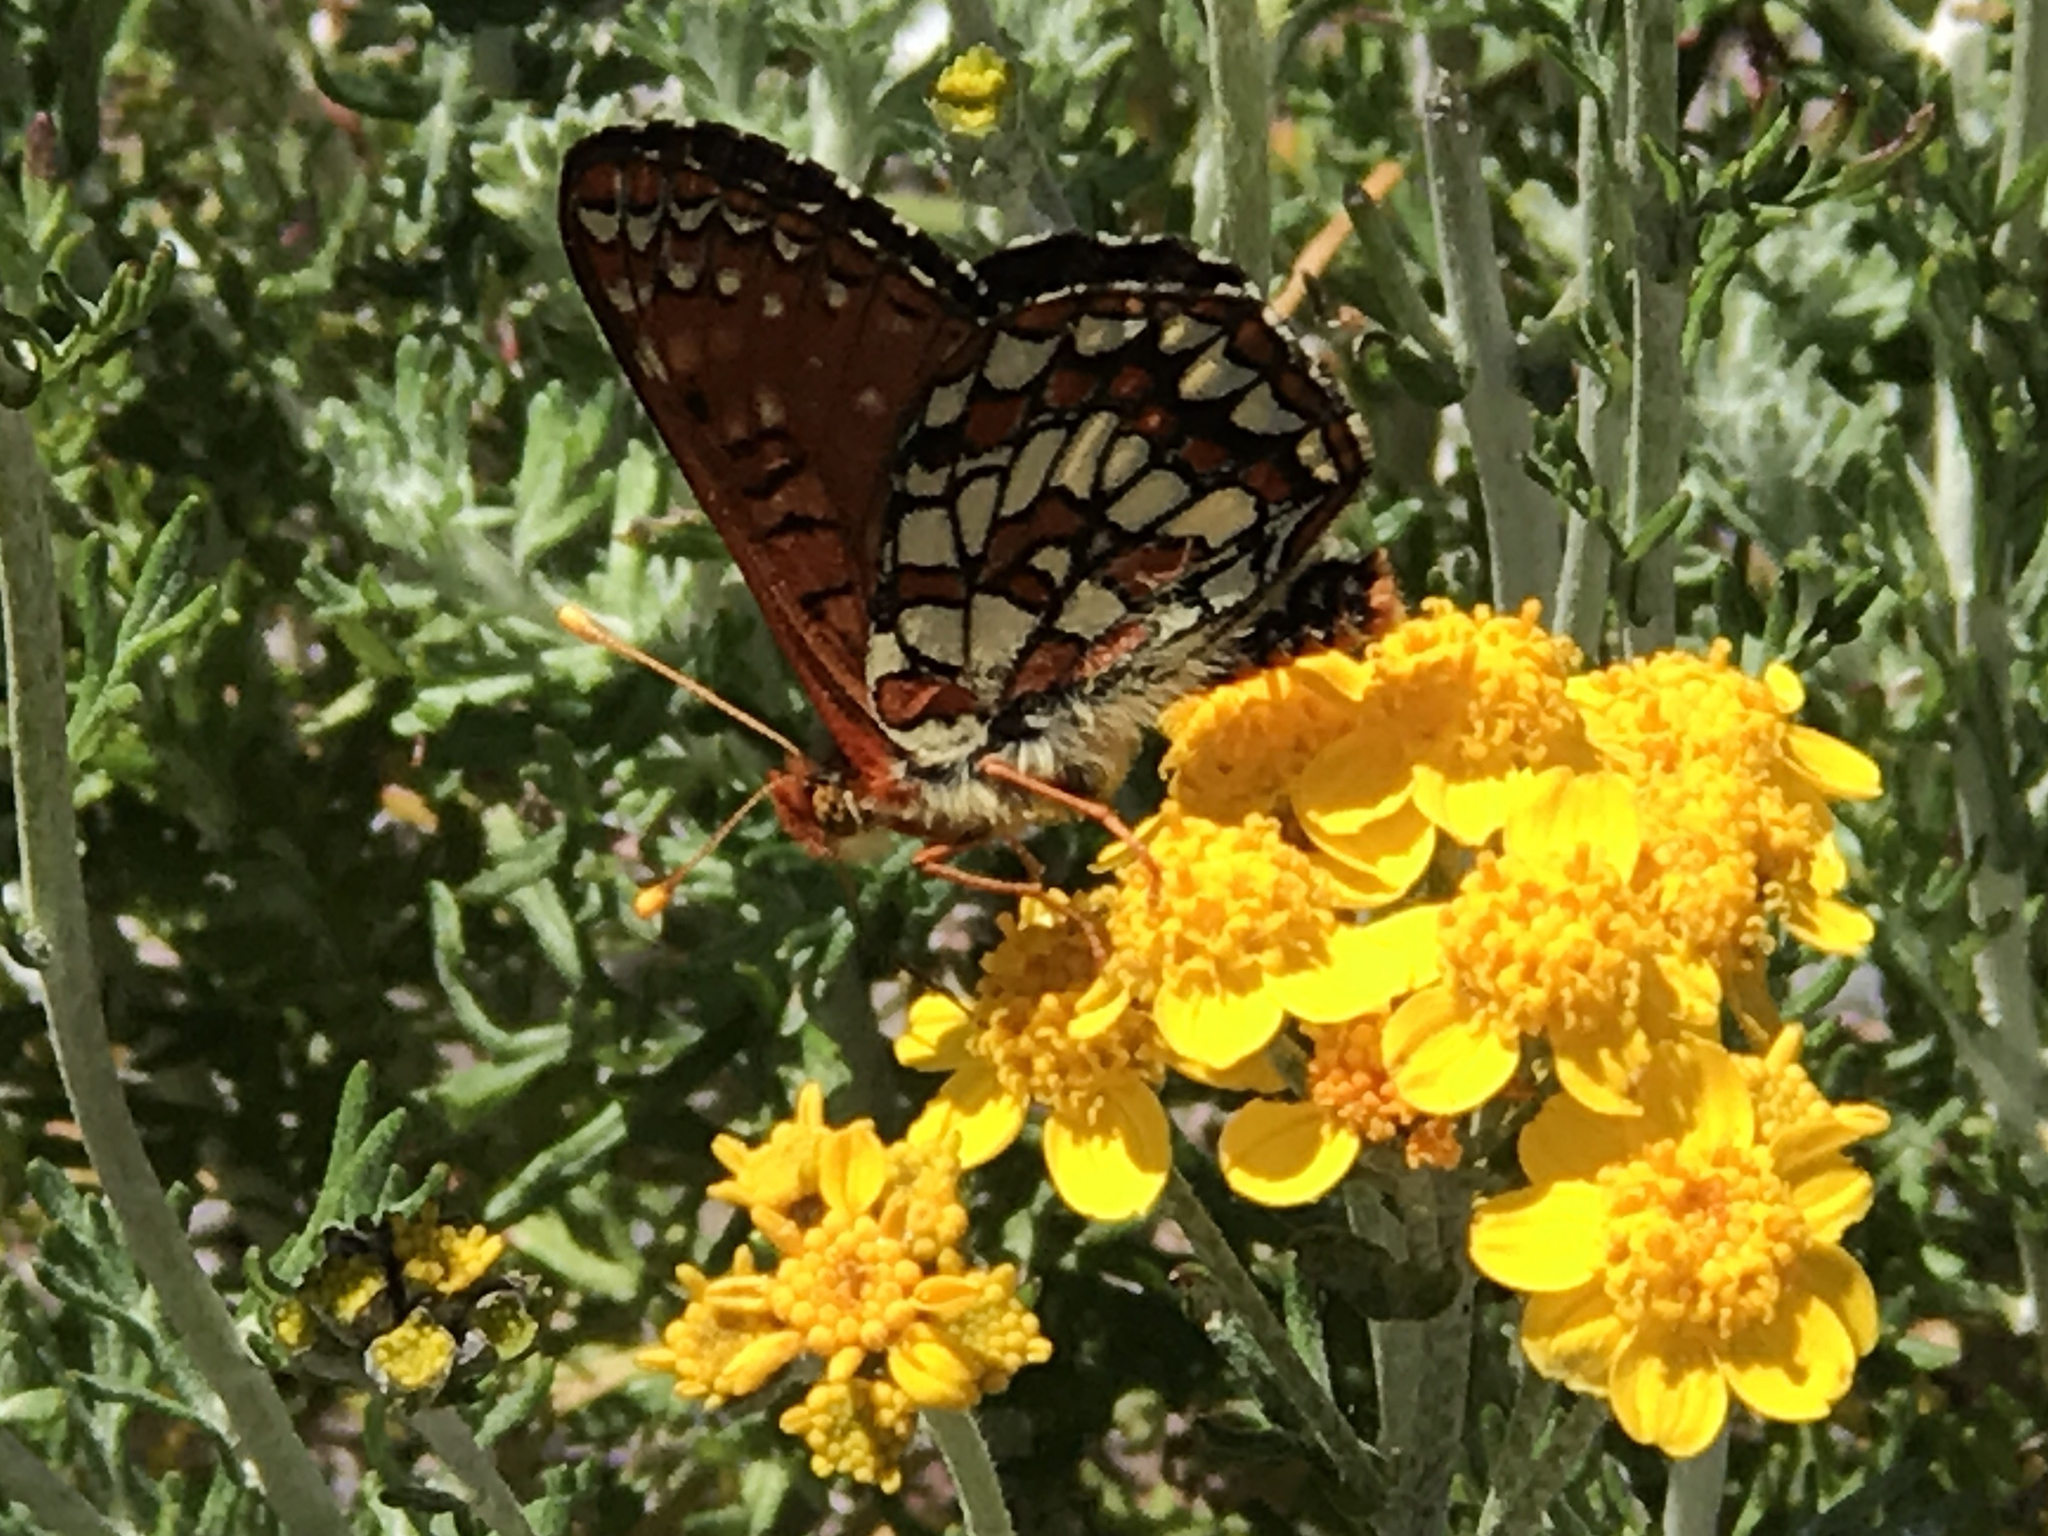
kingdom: Animalia
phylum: Arthropoda
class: Insecta
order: Lepidoptera
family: Nymphalidae
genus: Occidryas
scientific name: Occidryas chalcedona
